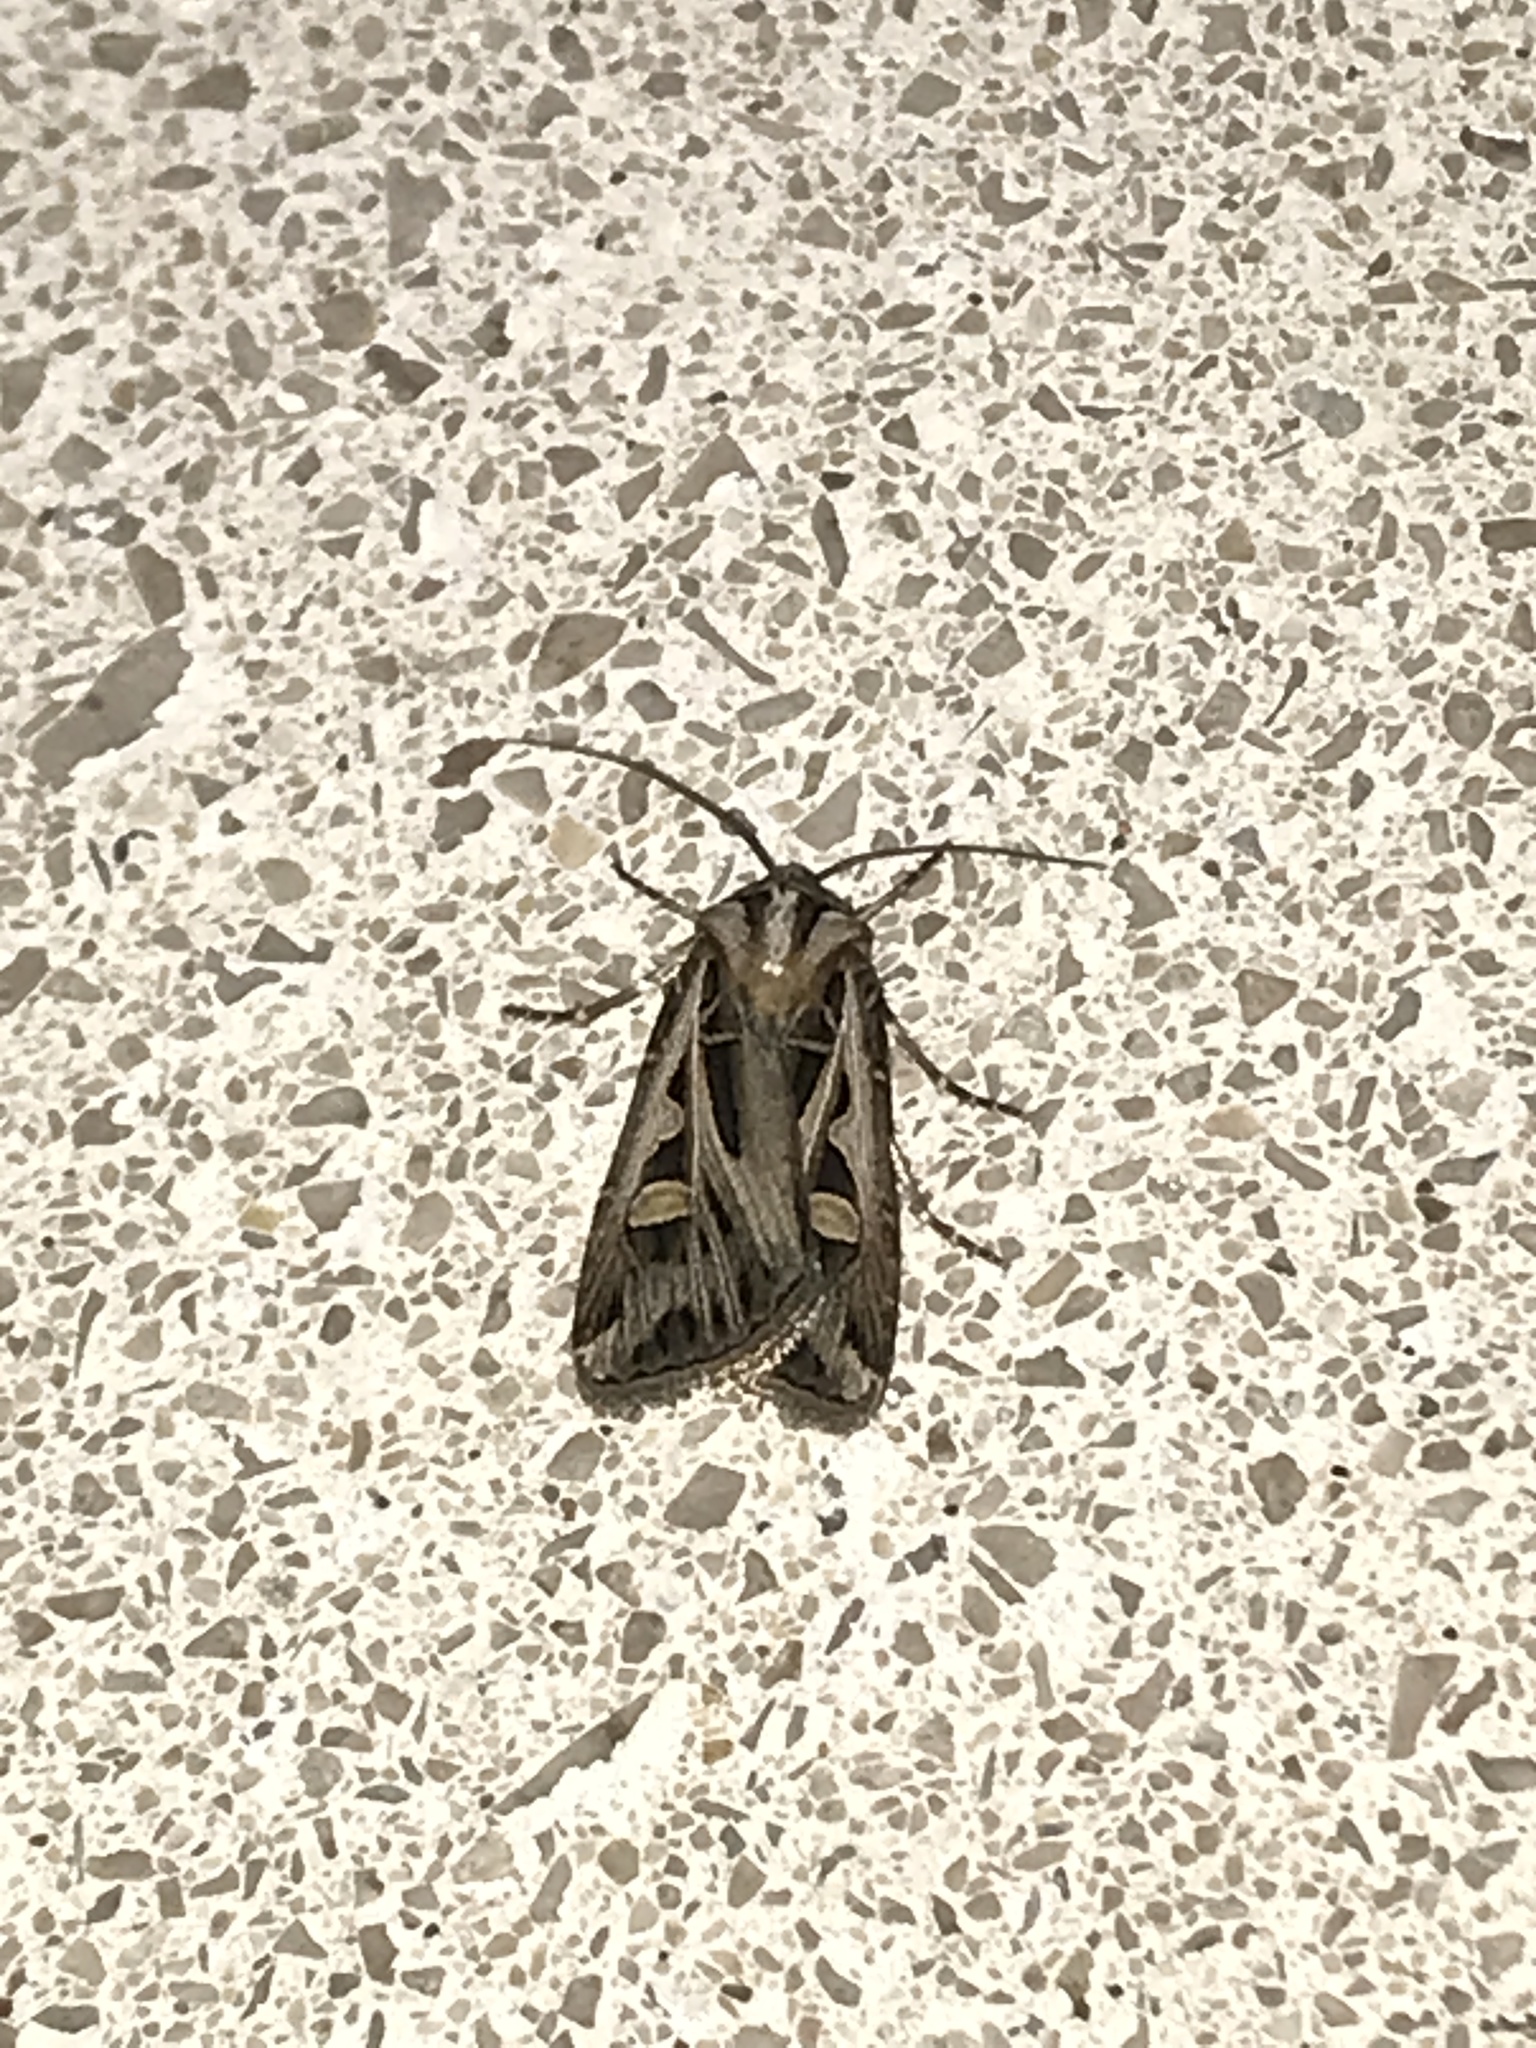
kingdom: Animalia
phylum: Arthropoda
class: Insecta
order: Lepidoptera
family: Noctuidae
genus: Feltia
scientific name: Feltia jaculifera
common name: Dingy cutworm moth
